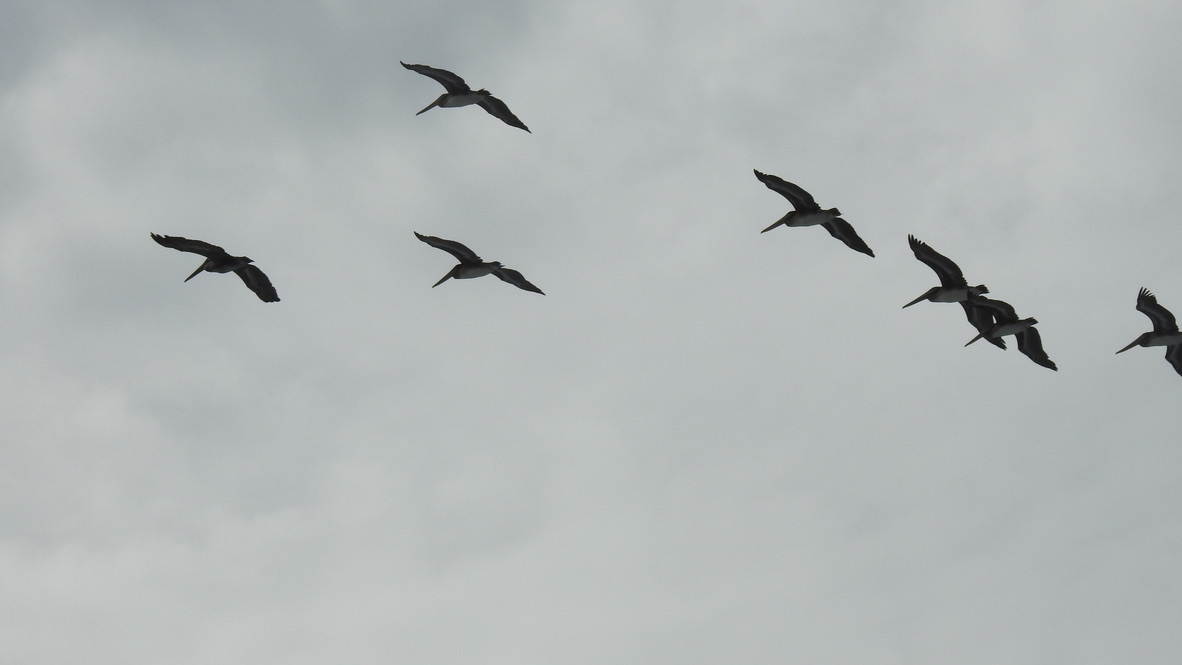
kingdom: Animalia
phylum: Chordata
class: Aves
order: Pelecaniformes
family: Pelecanidae
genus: Pelecanus
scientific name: Pelecanus occidentalis
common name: Brown pelican
